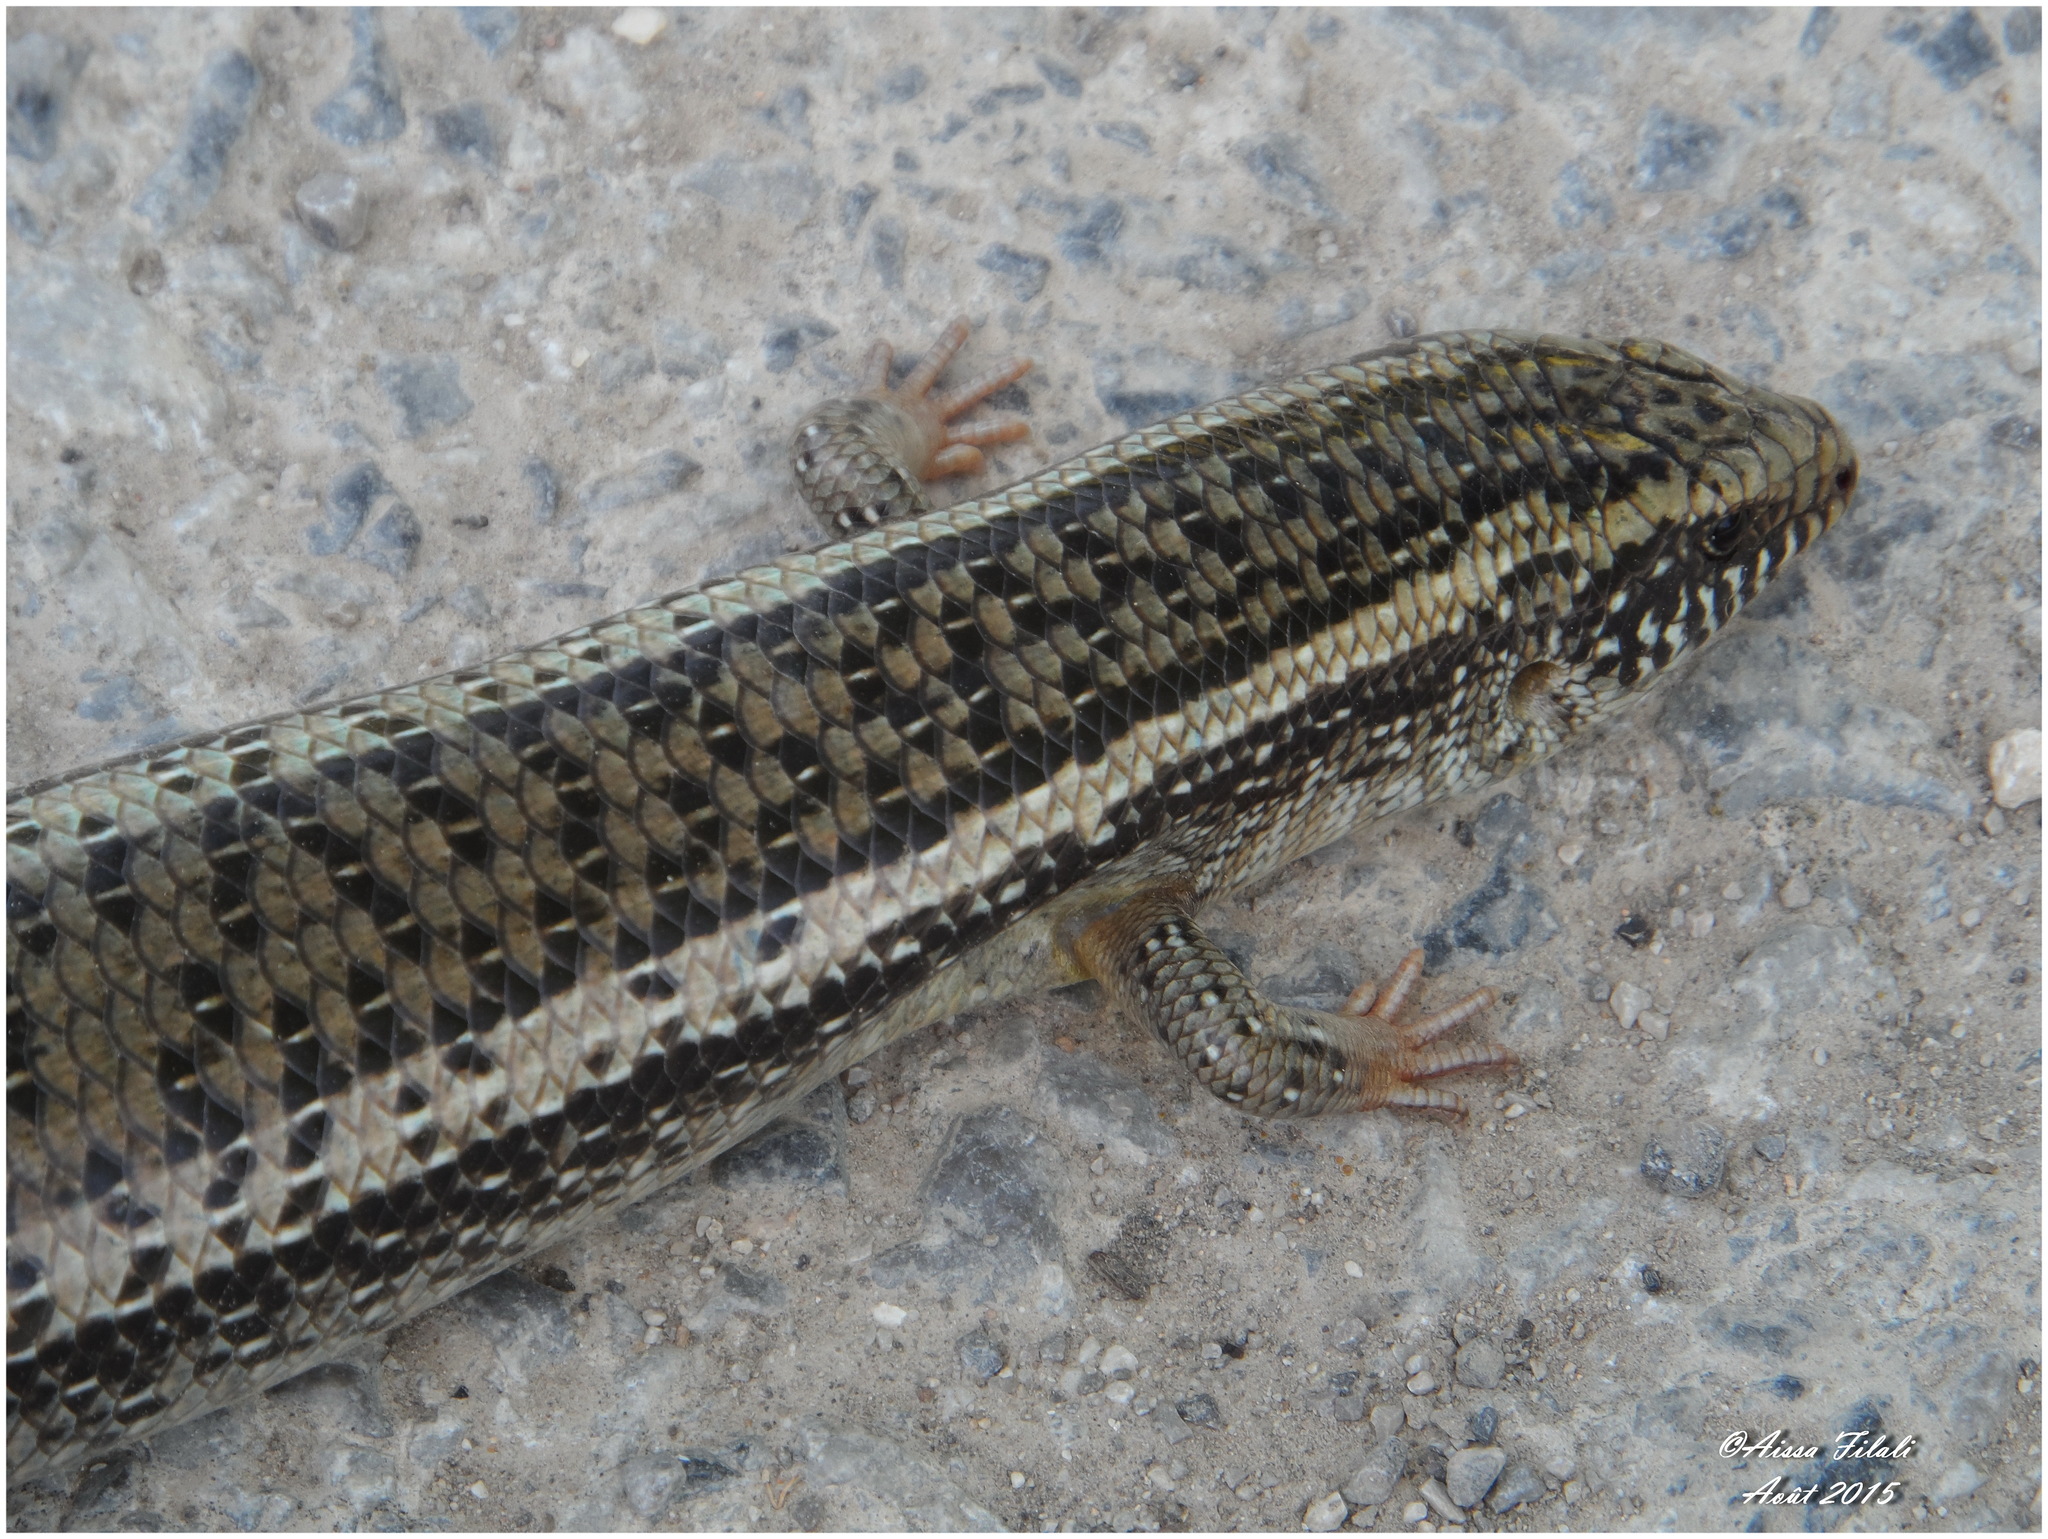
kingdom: Animalia
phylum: Chordata
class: Squamata
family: Scincidae
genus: Chalcides
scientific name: Chalcides ocellatus
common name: Ocellated skink
